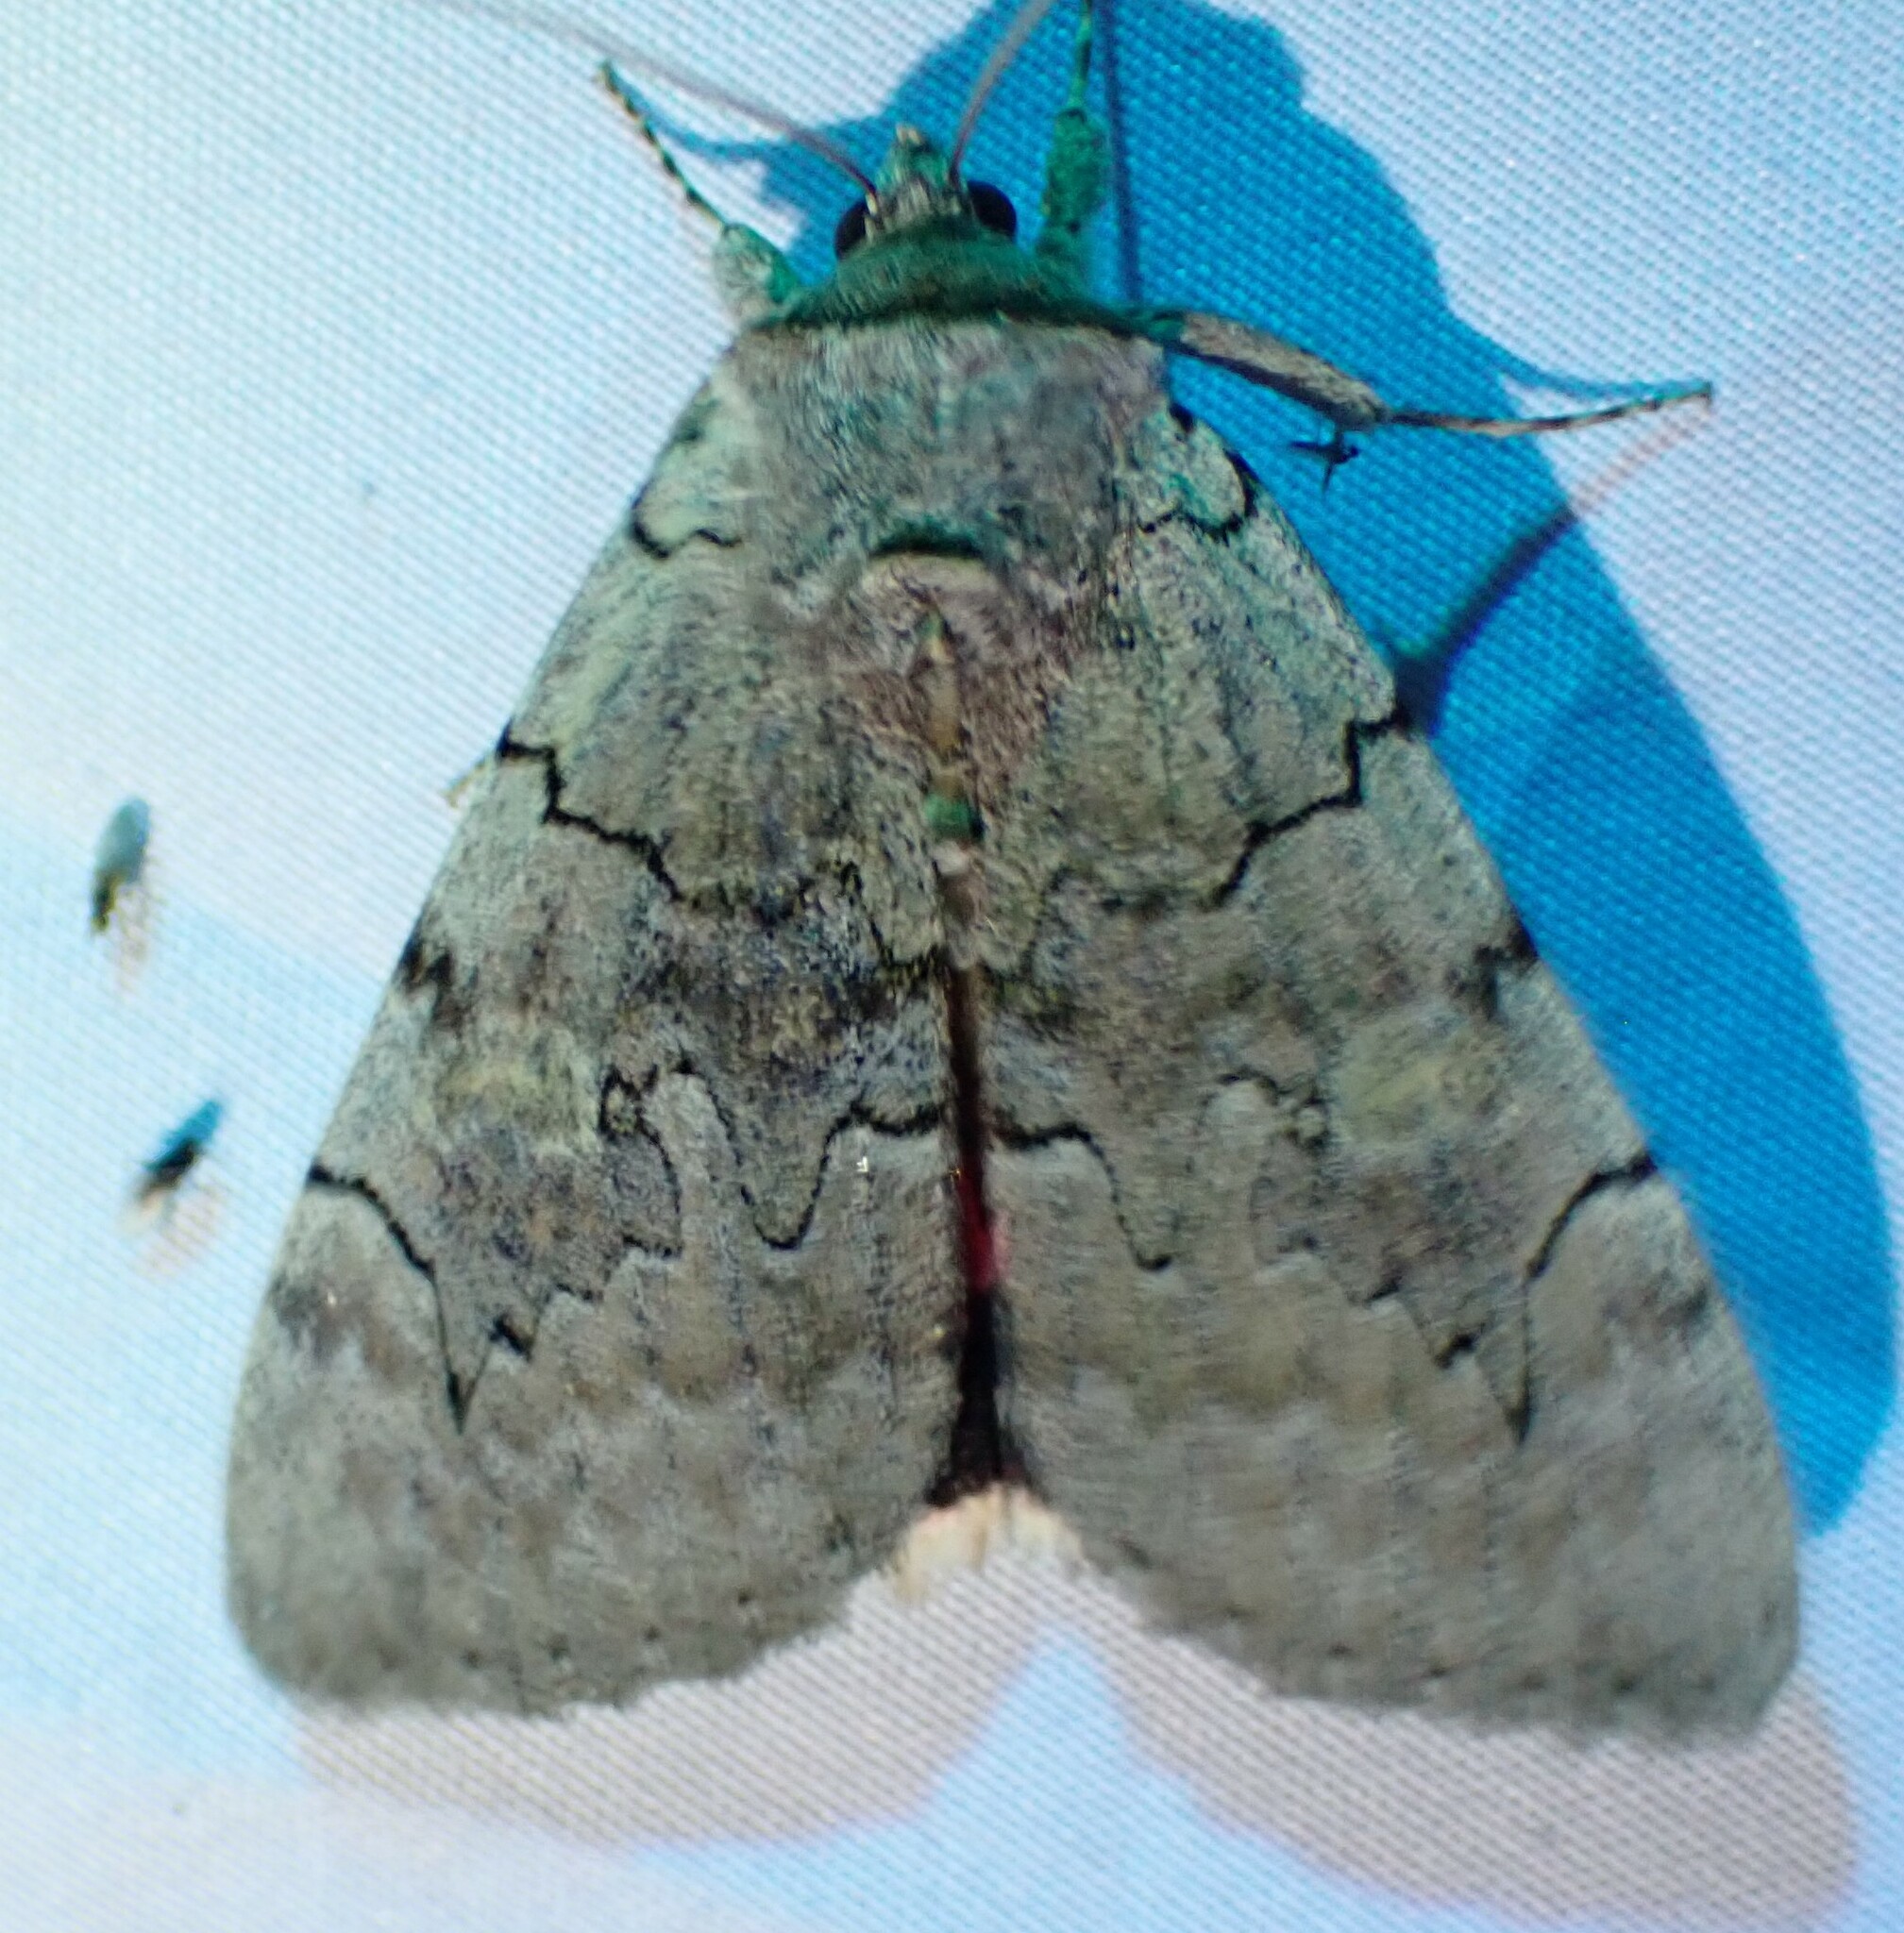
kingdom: Animalia
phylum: Arthropoda
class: Insecta
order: Lepidoptera
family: Erebidae
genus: Catocala
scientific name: Catocala concumbens
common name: Pink underwing
